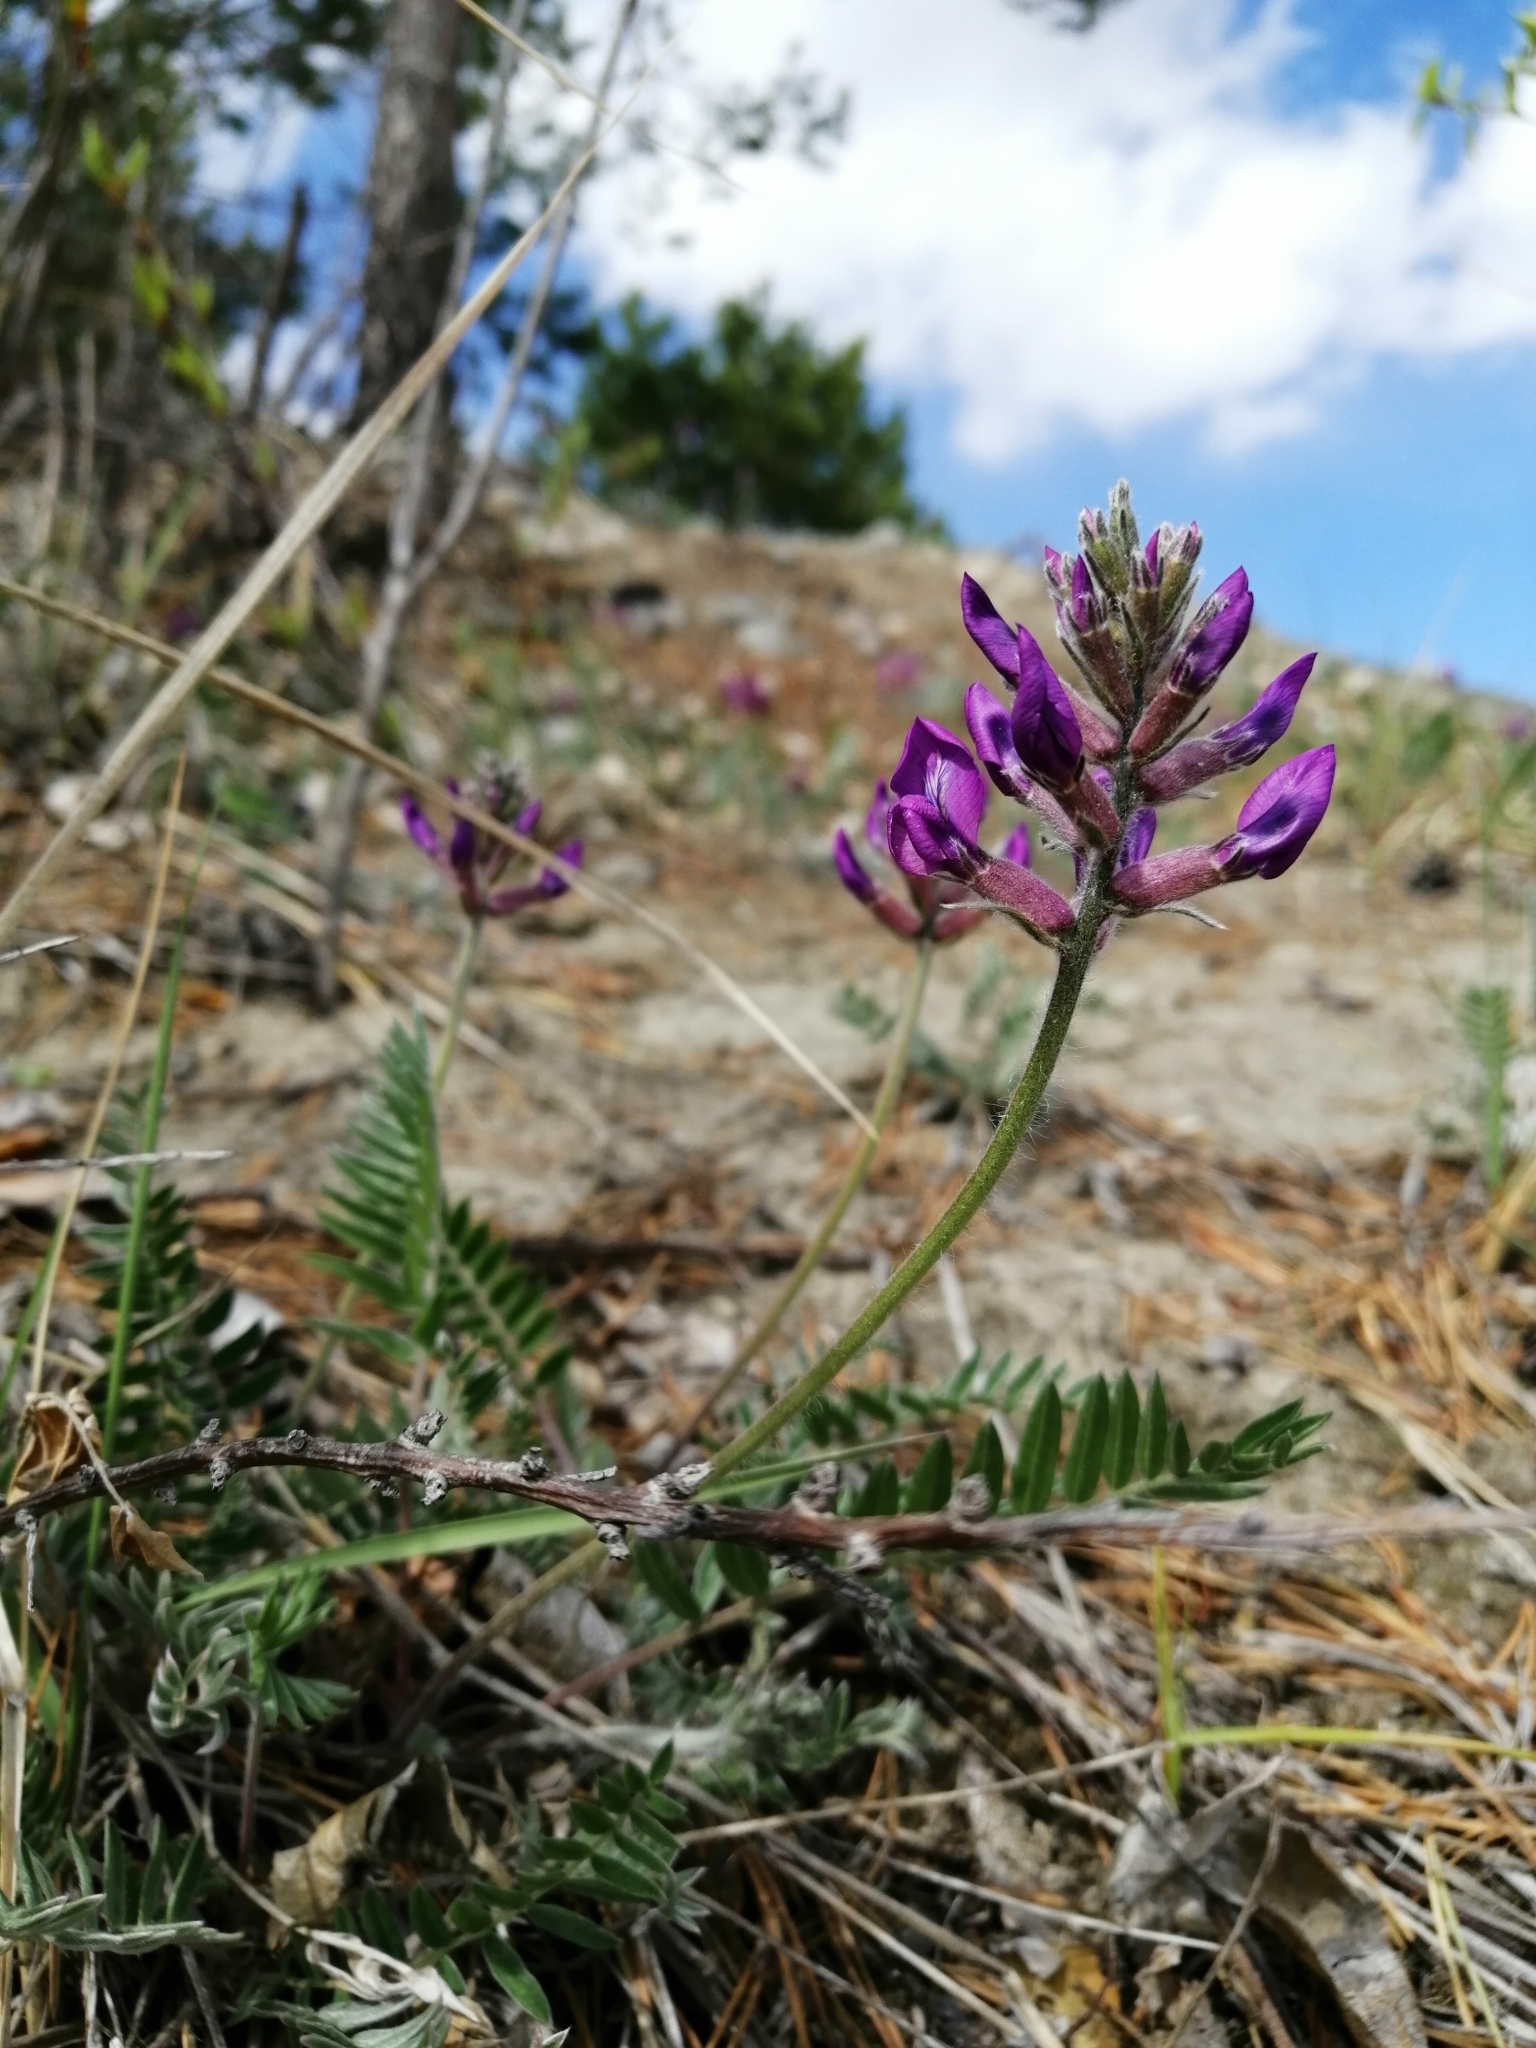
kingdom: Plantae
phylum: Tracheophyta
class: Magnoliopsida
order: Fabales
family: Fabaceae
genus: Oxytropis
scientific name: Oxytropis strobilacea
